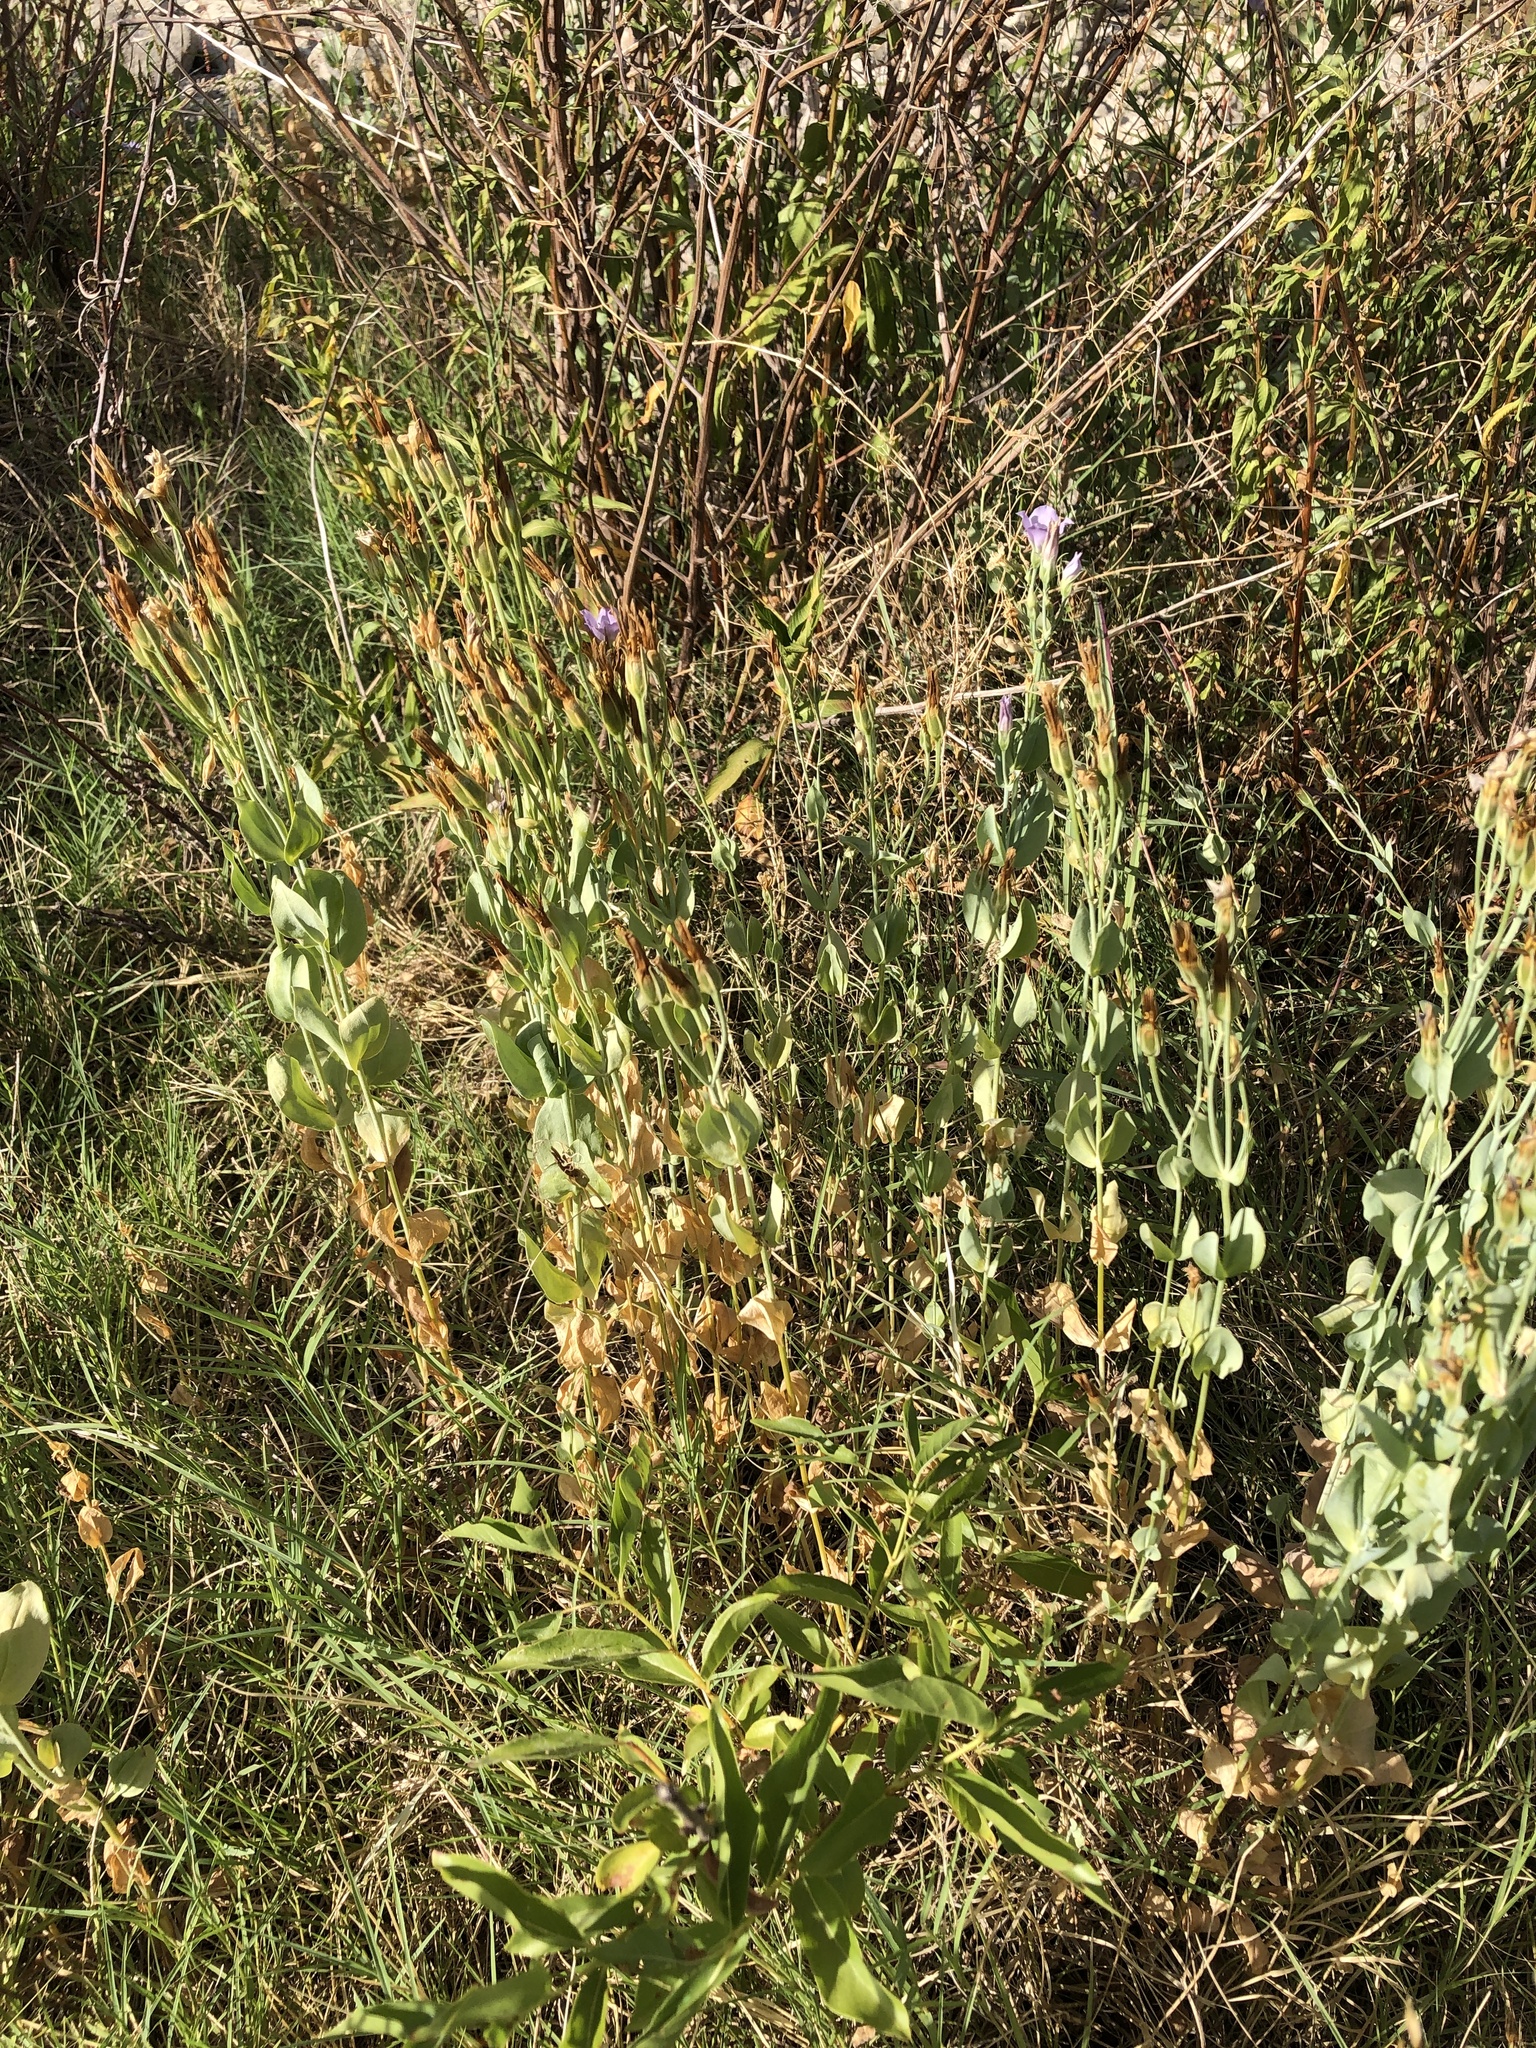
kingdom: Plantae
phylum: Tracheophyta
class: Magnoliopsida
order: Gentianales
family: Gentianaceae
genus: Eustoma
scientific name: Eustoma exaltatum
